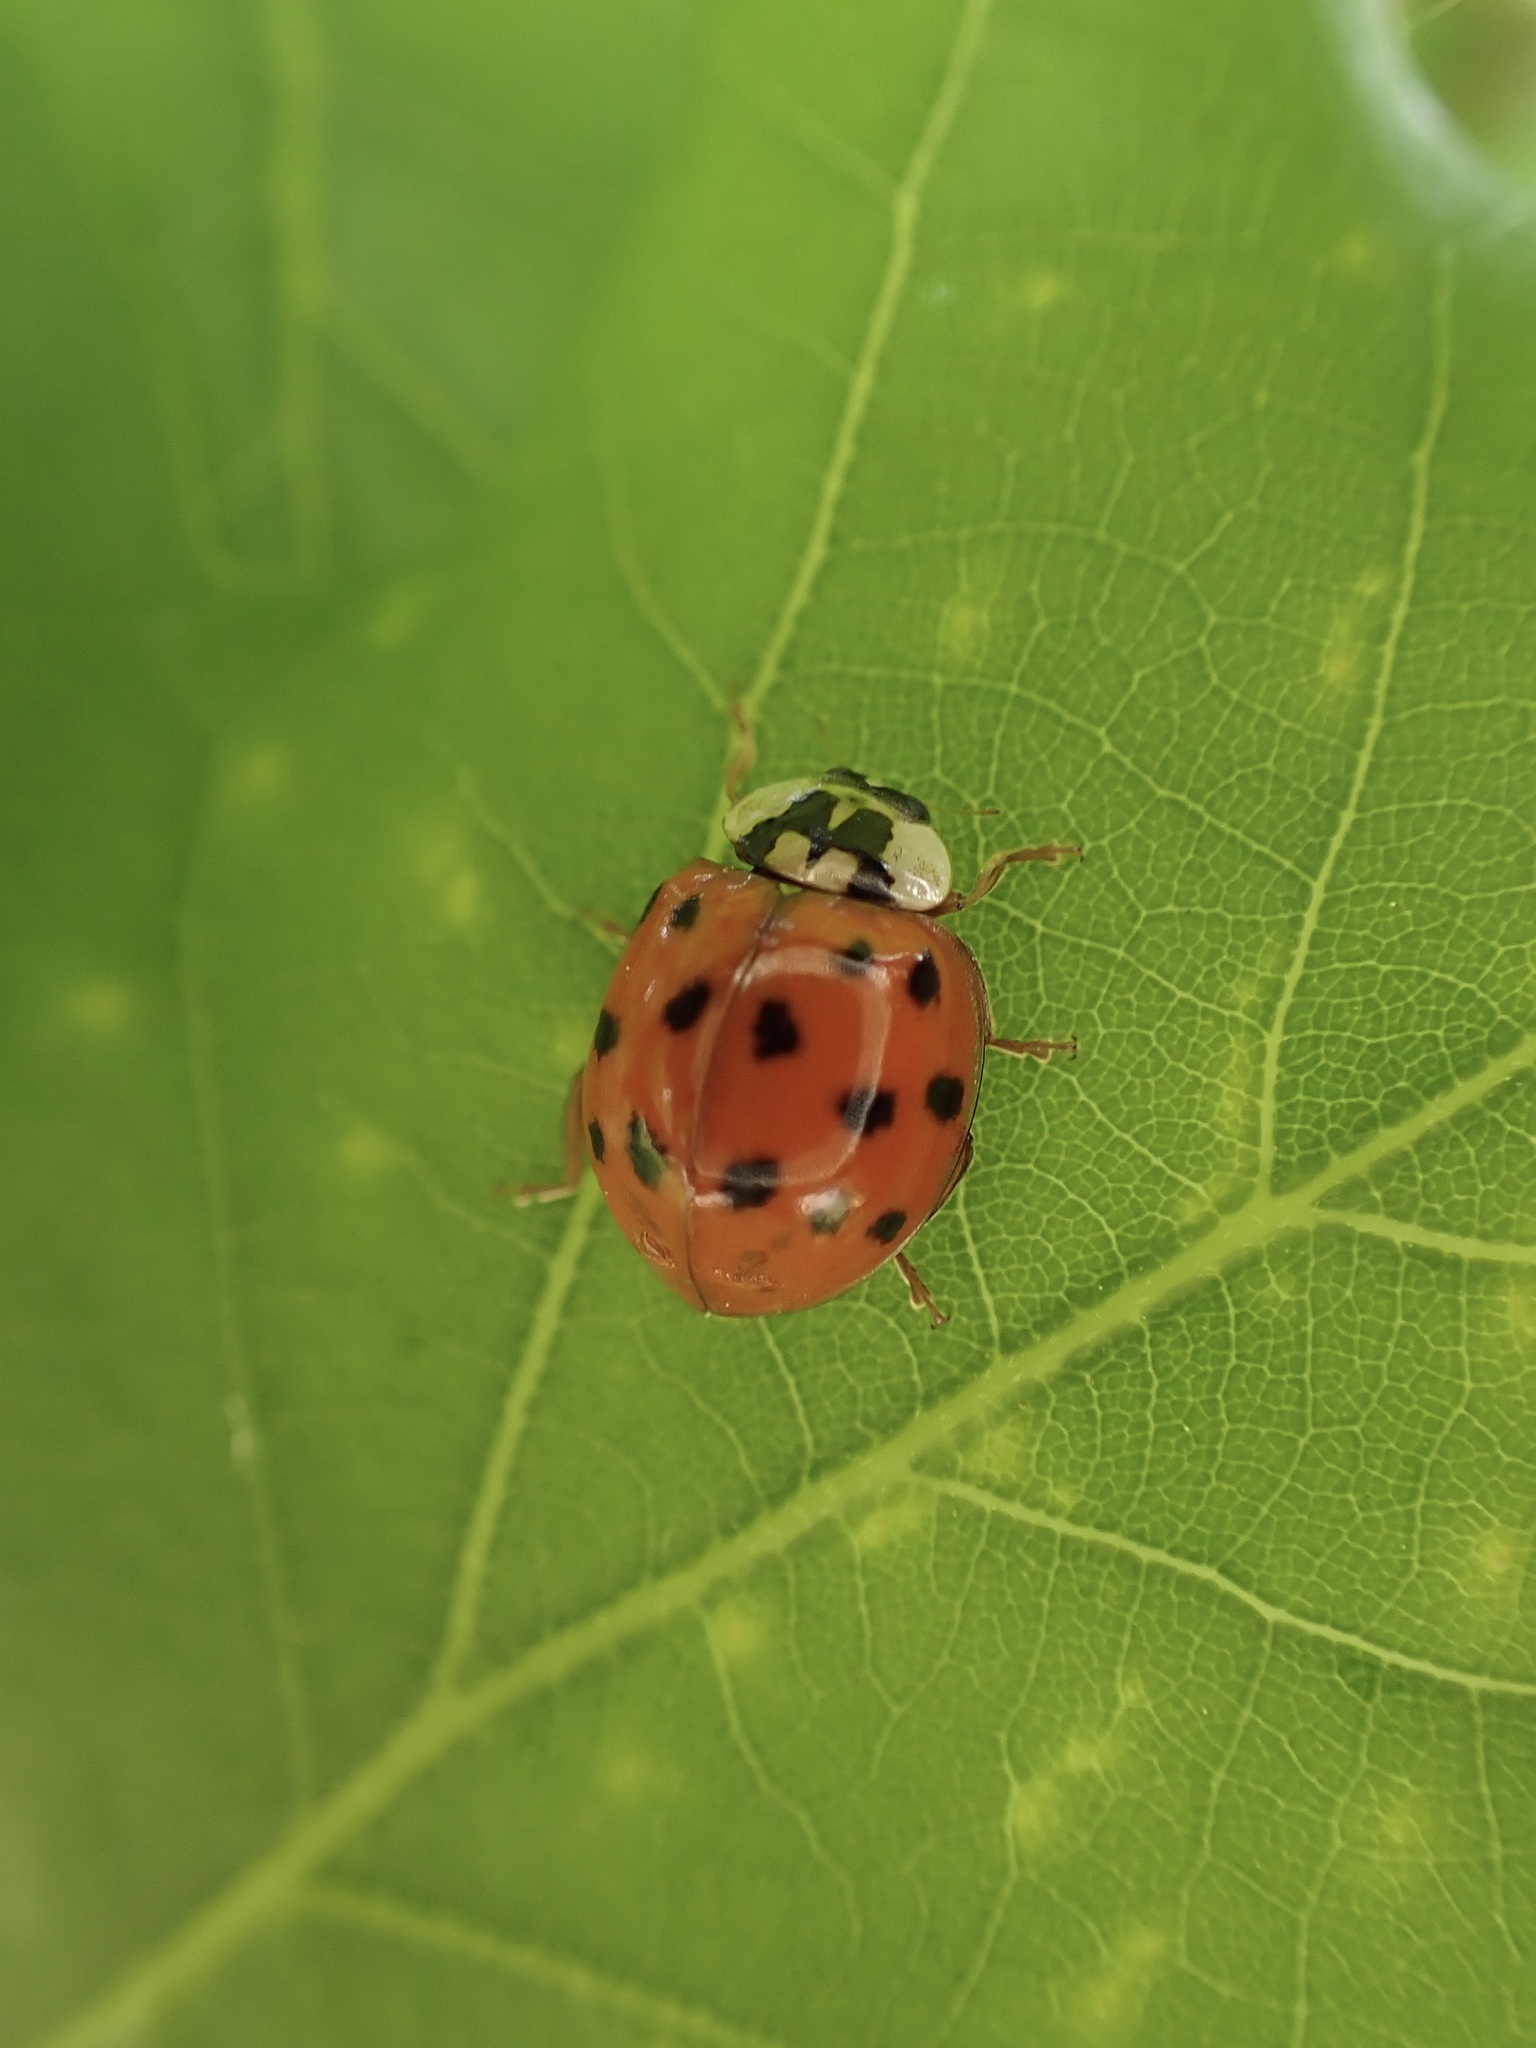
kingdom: Animalia
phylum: Arthropoda
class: Insecta
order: Coleoptera
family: Coccinellidae
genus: Harmonia
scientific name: Harmonia axyridis
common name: Harlequin ladybird
